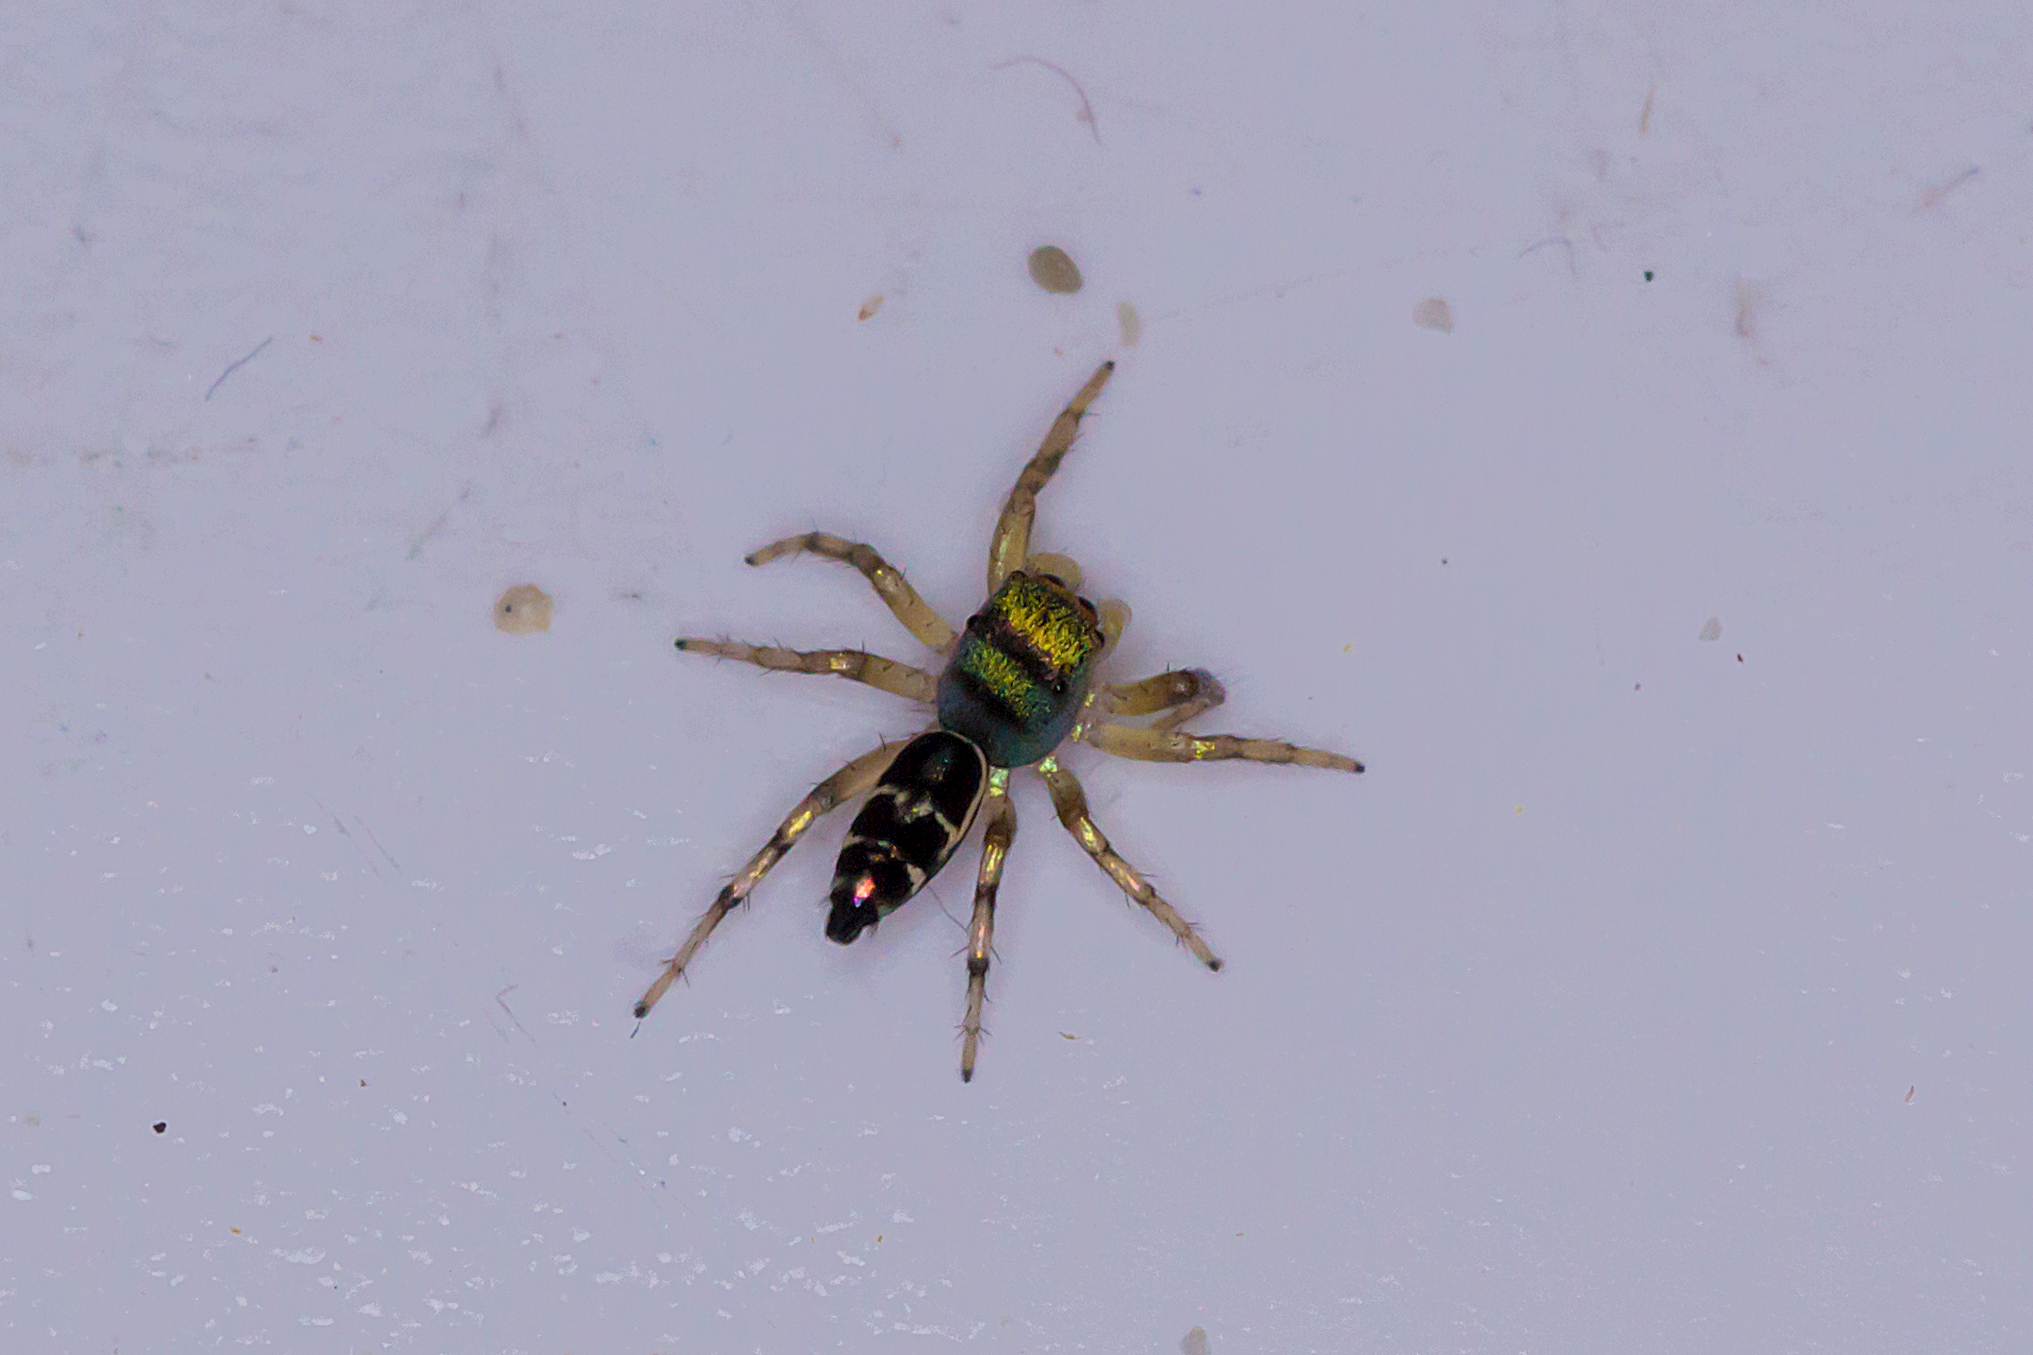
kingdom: Animalia
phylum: Arthropoda
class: Arachnida
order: Araneae
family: Salticidae
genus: Cosmophasis
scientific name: Cosmophasis thalassina
